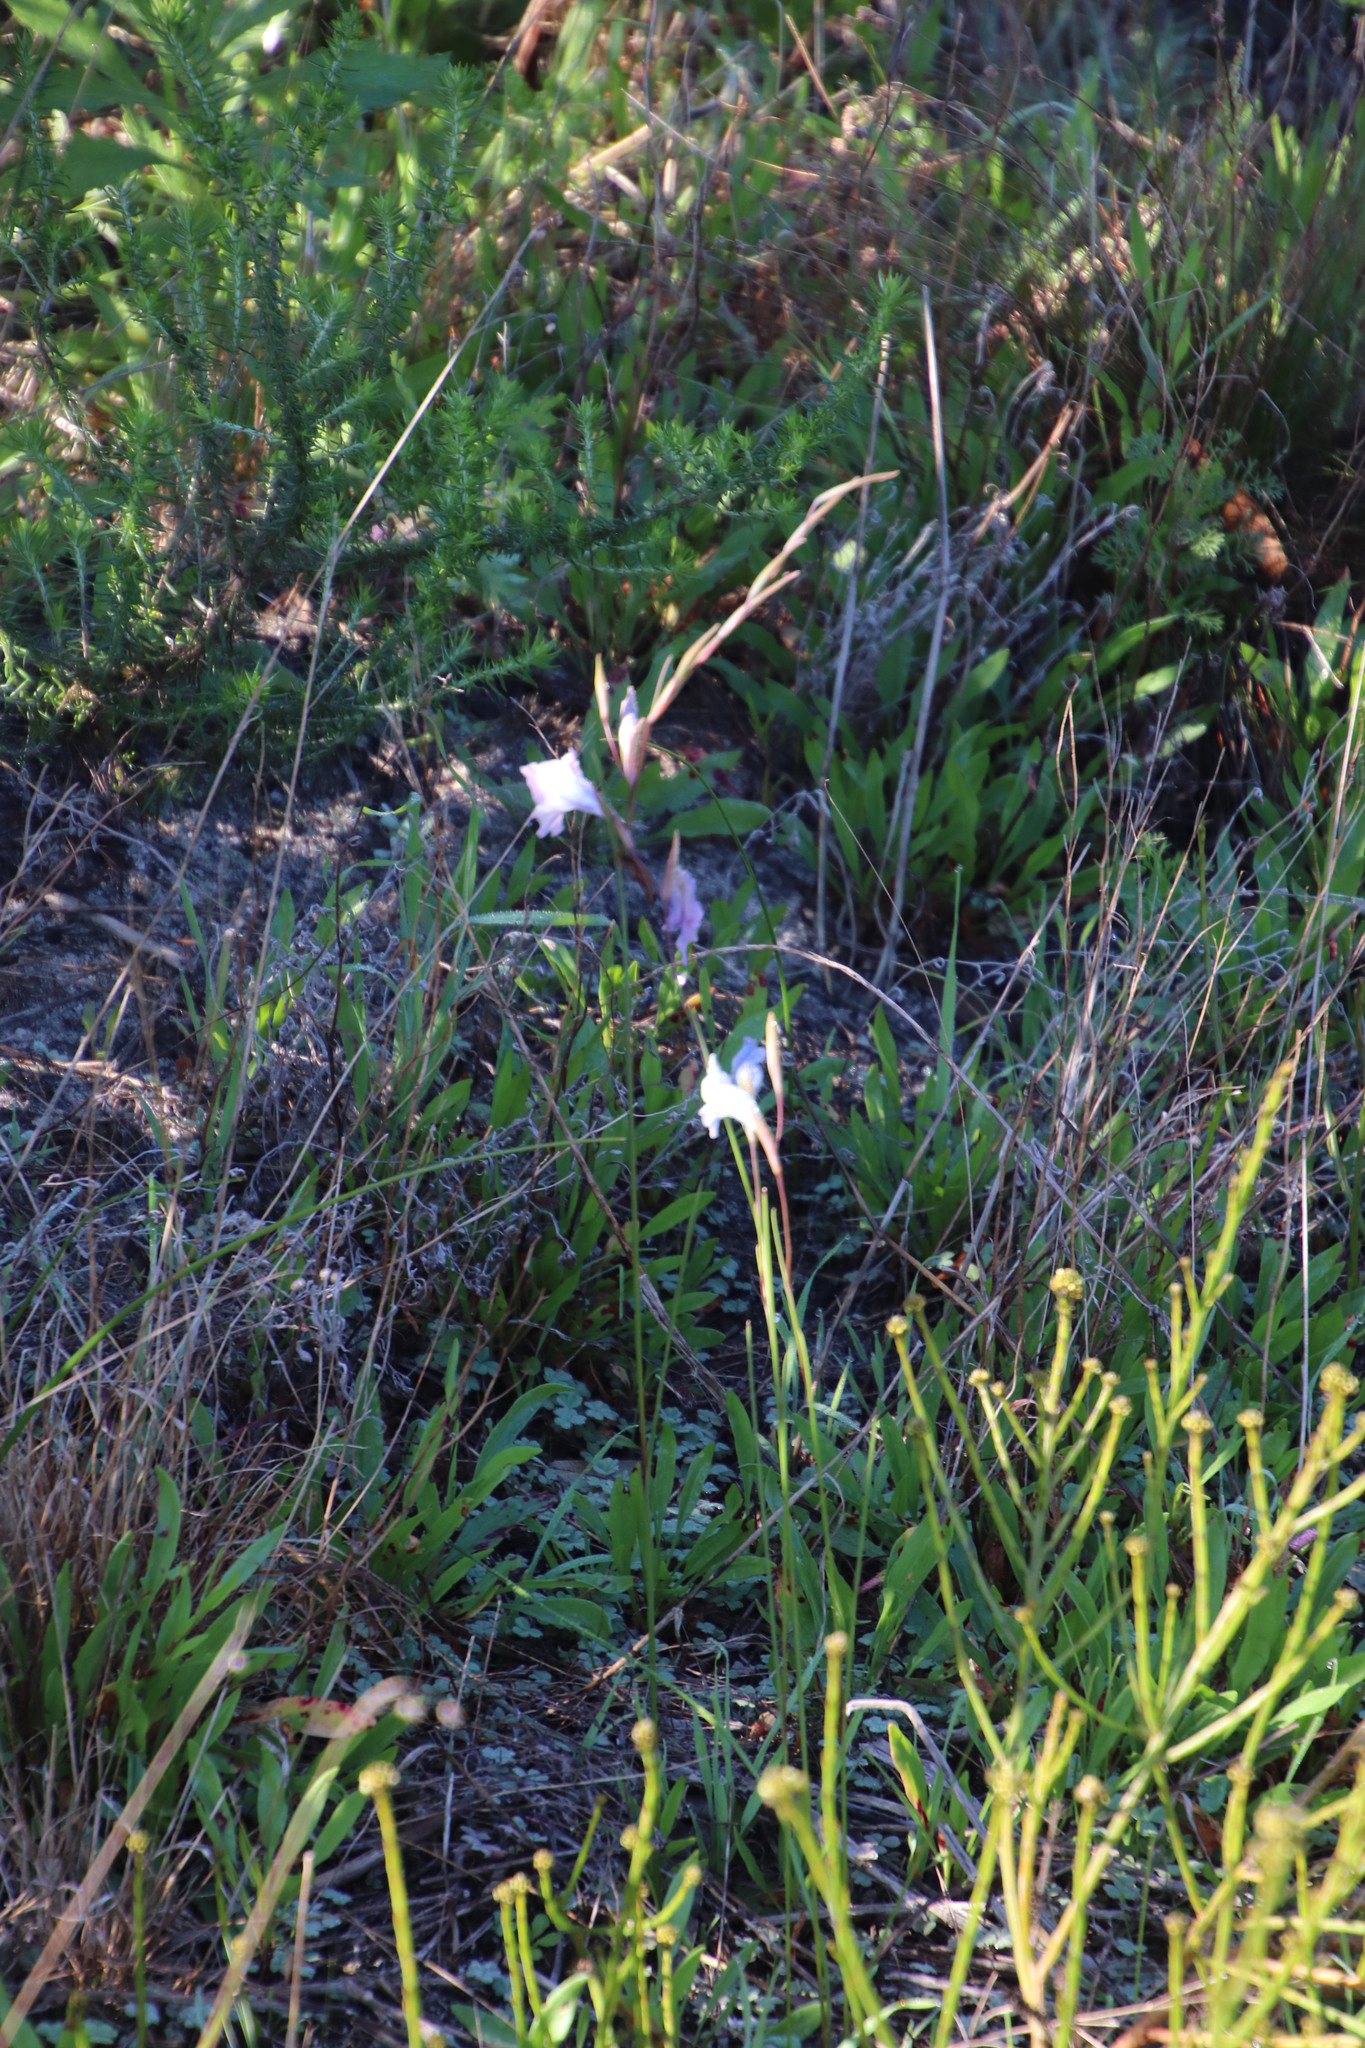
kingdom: Plantae
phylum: Tracheophyta
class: Liliopsida
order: Asparagales
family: Iridaceae
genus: Gladiolus
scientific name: Gladiolus gracilis
